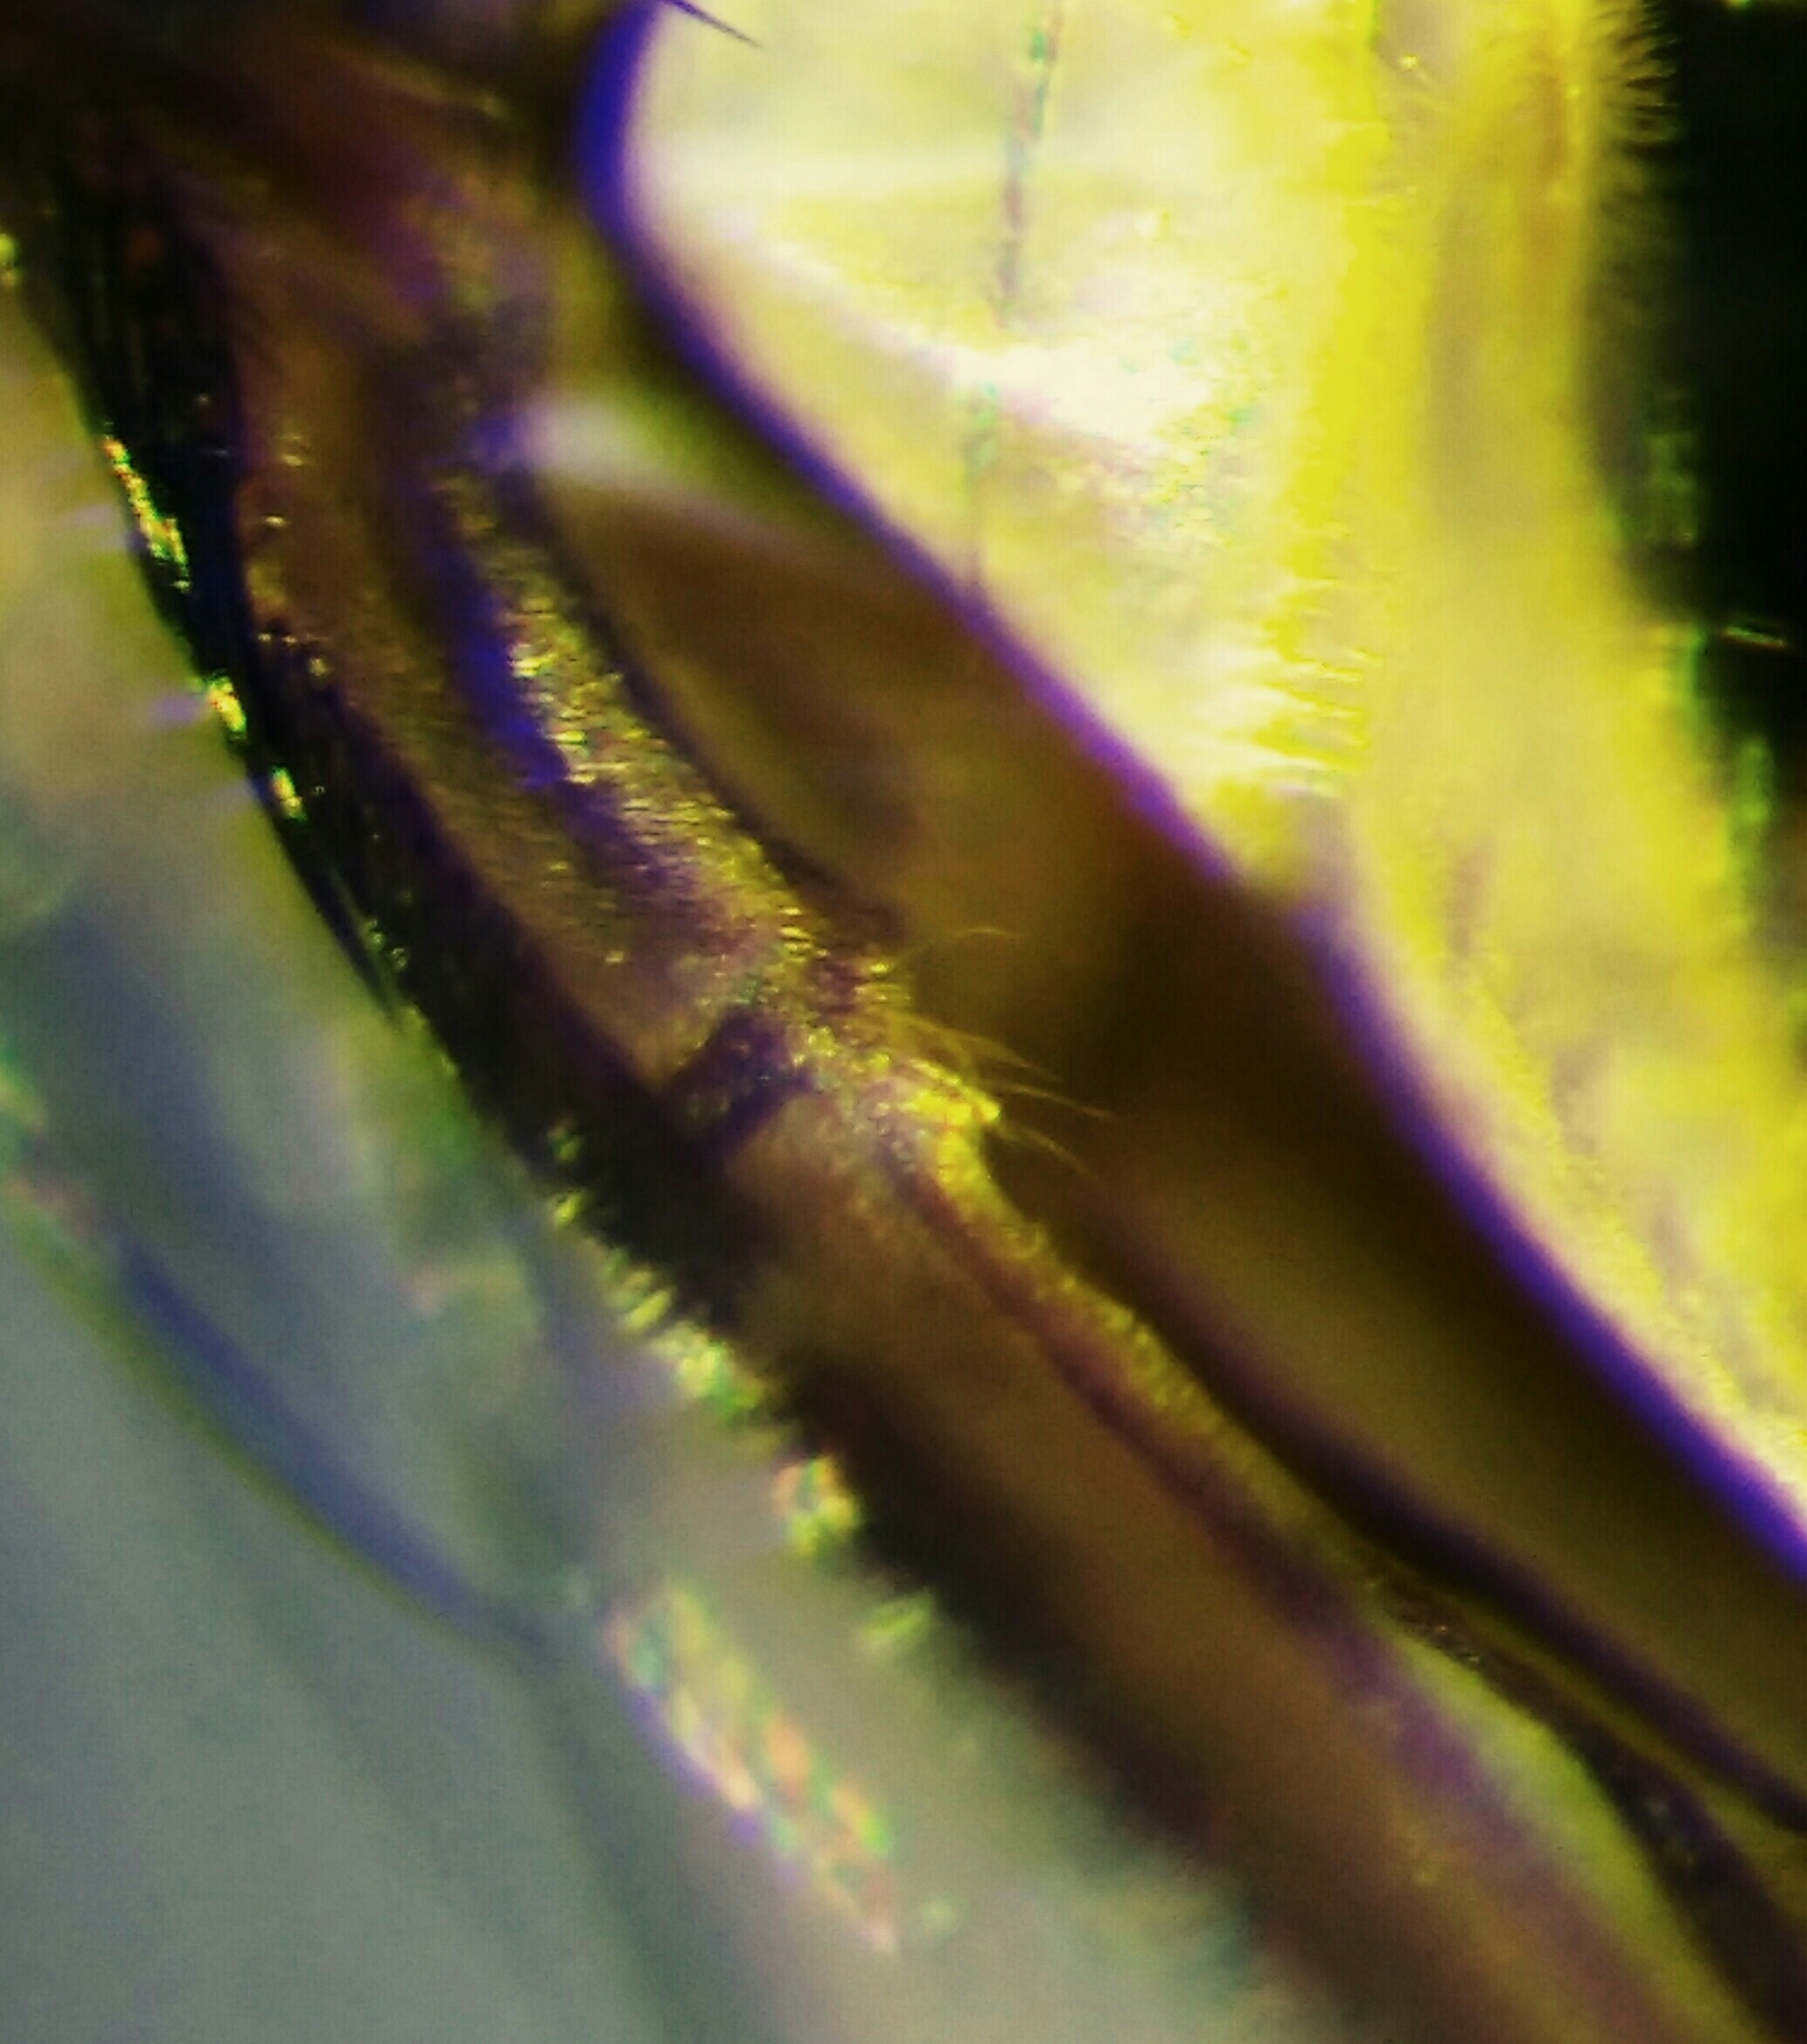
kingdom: Animalia
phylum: Arthropoda
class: Insecta
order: Diptera
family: Polleniidae
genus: Pollenia
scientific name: Pollenia pediculata
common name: Tufted clusterfly
